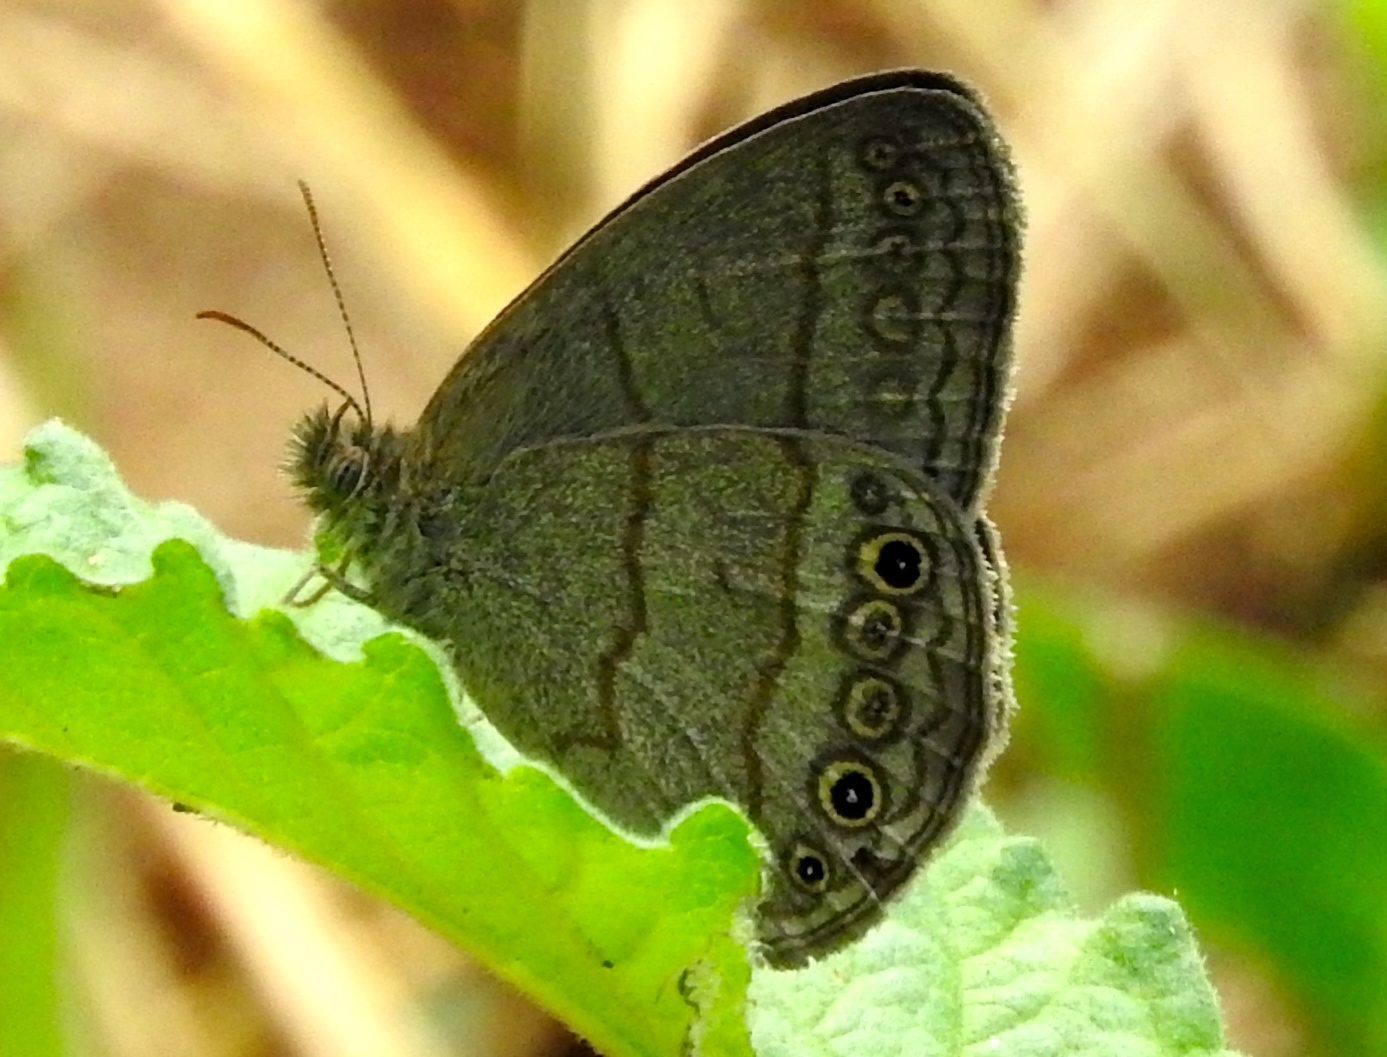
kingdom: Animalia
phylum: Arthropoda
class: Insecta
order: Lepidoptera
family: Nymphalidae
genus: Hermeuptychia
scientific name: Hermeuptychia hermes
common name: Hermes satyr
